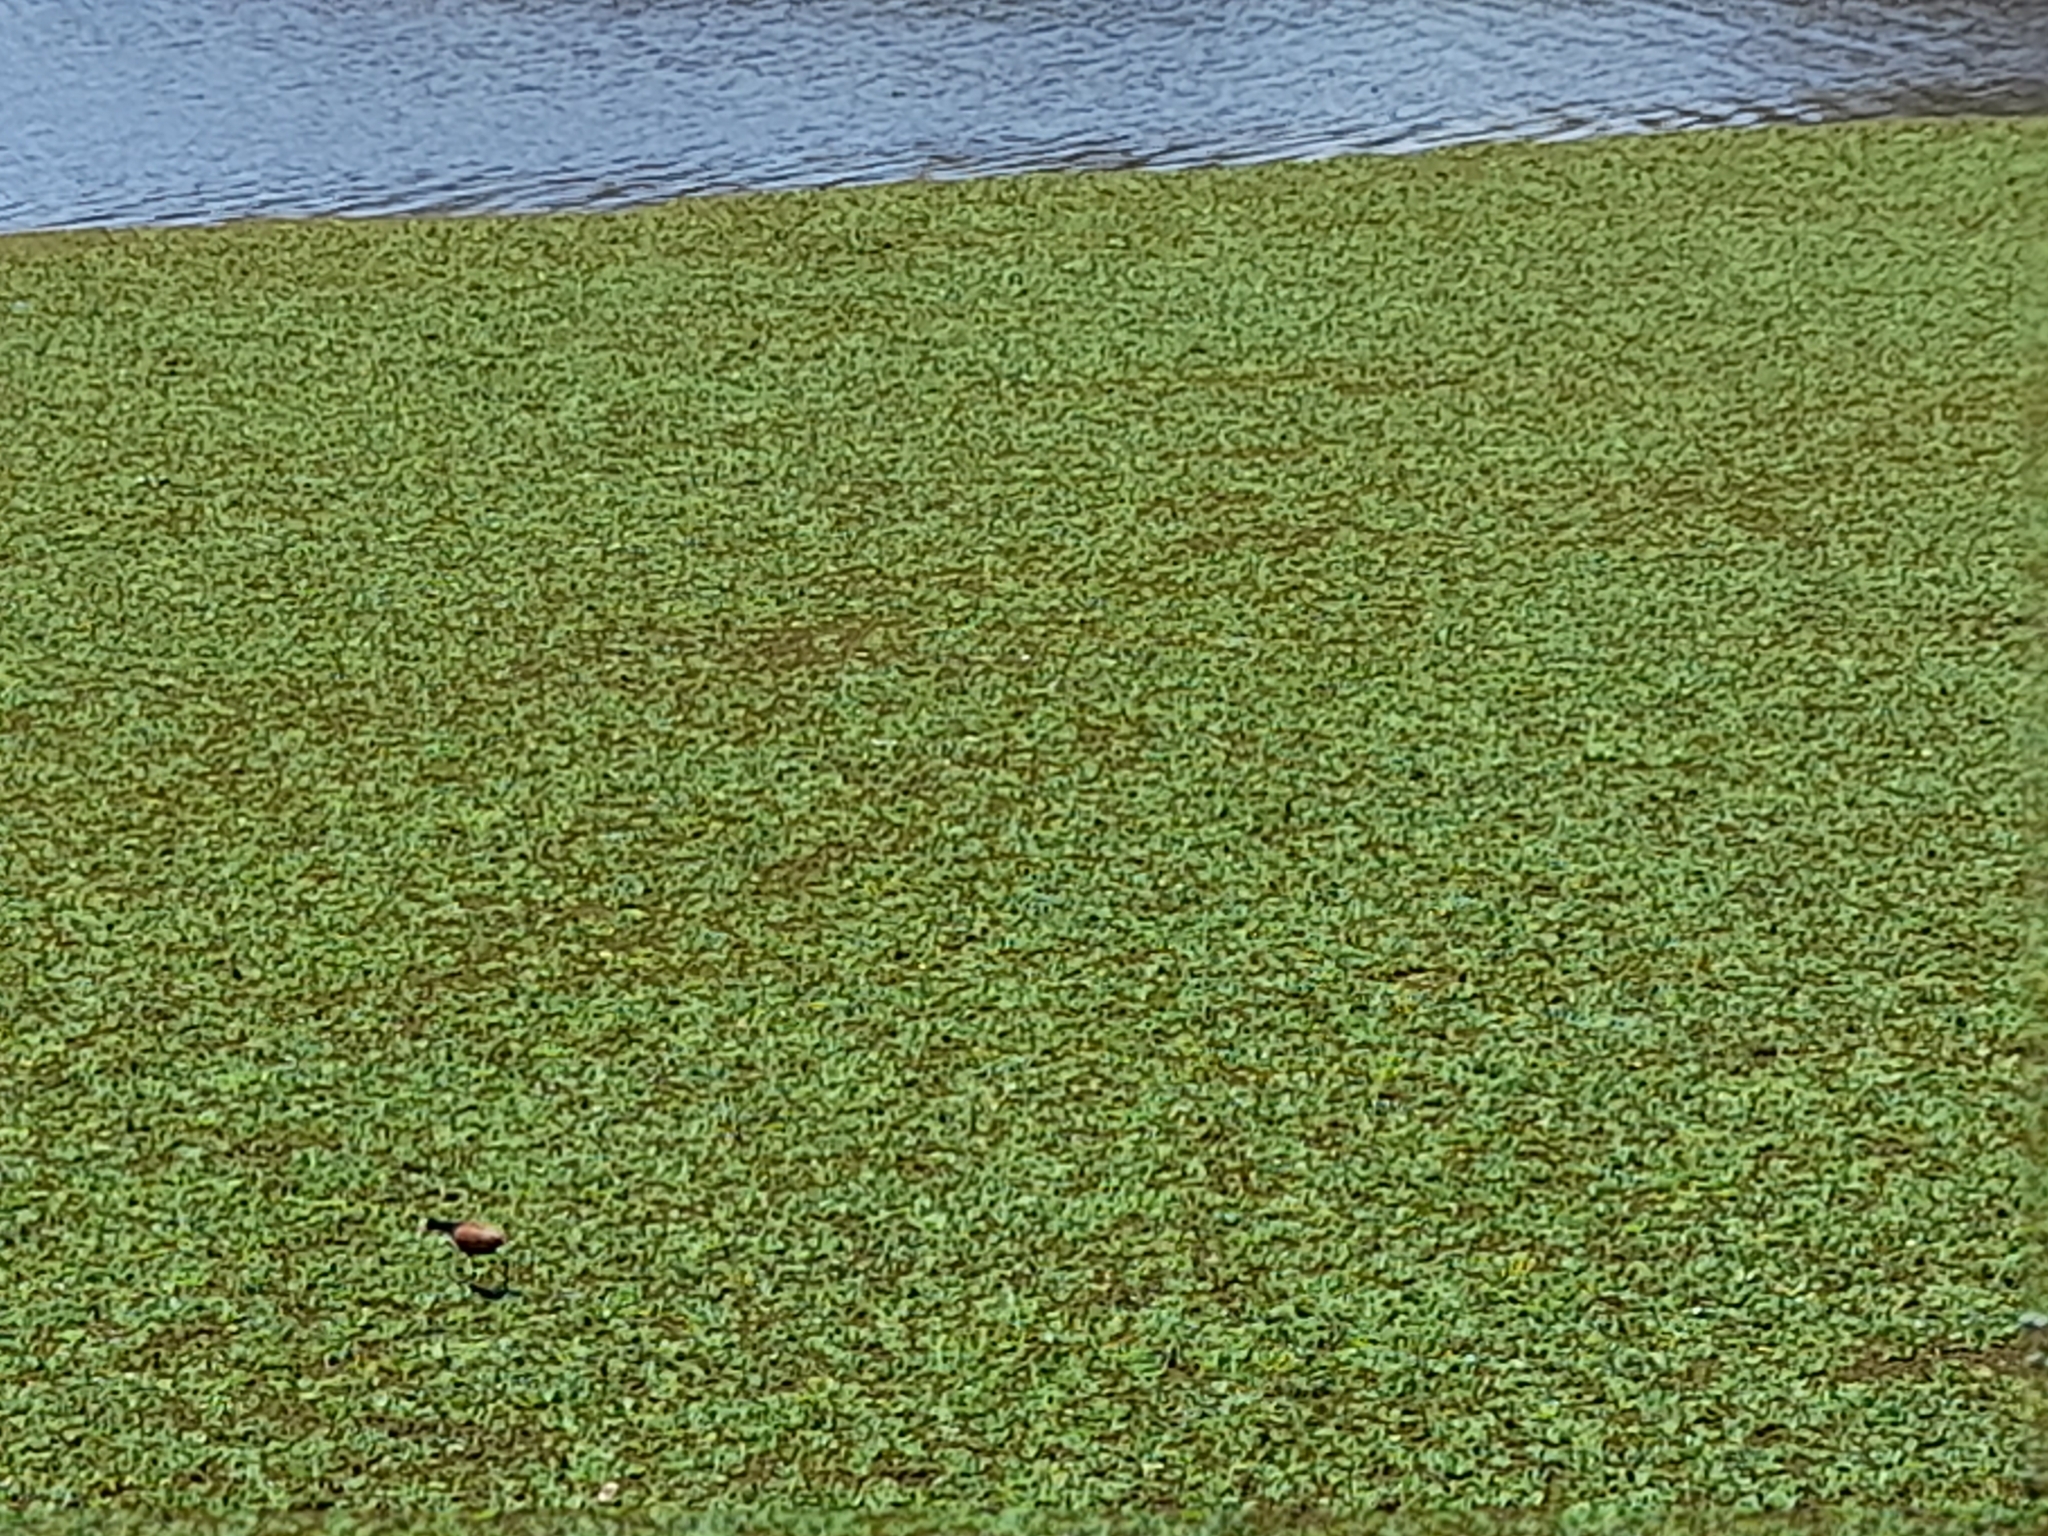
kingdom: Animalia
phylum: Chordata
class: Aves
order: Charadriiformes
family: Jacanidae
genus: Jacana
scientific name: Jacana jacana
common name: Wattled jacana
